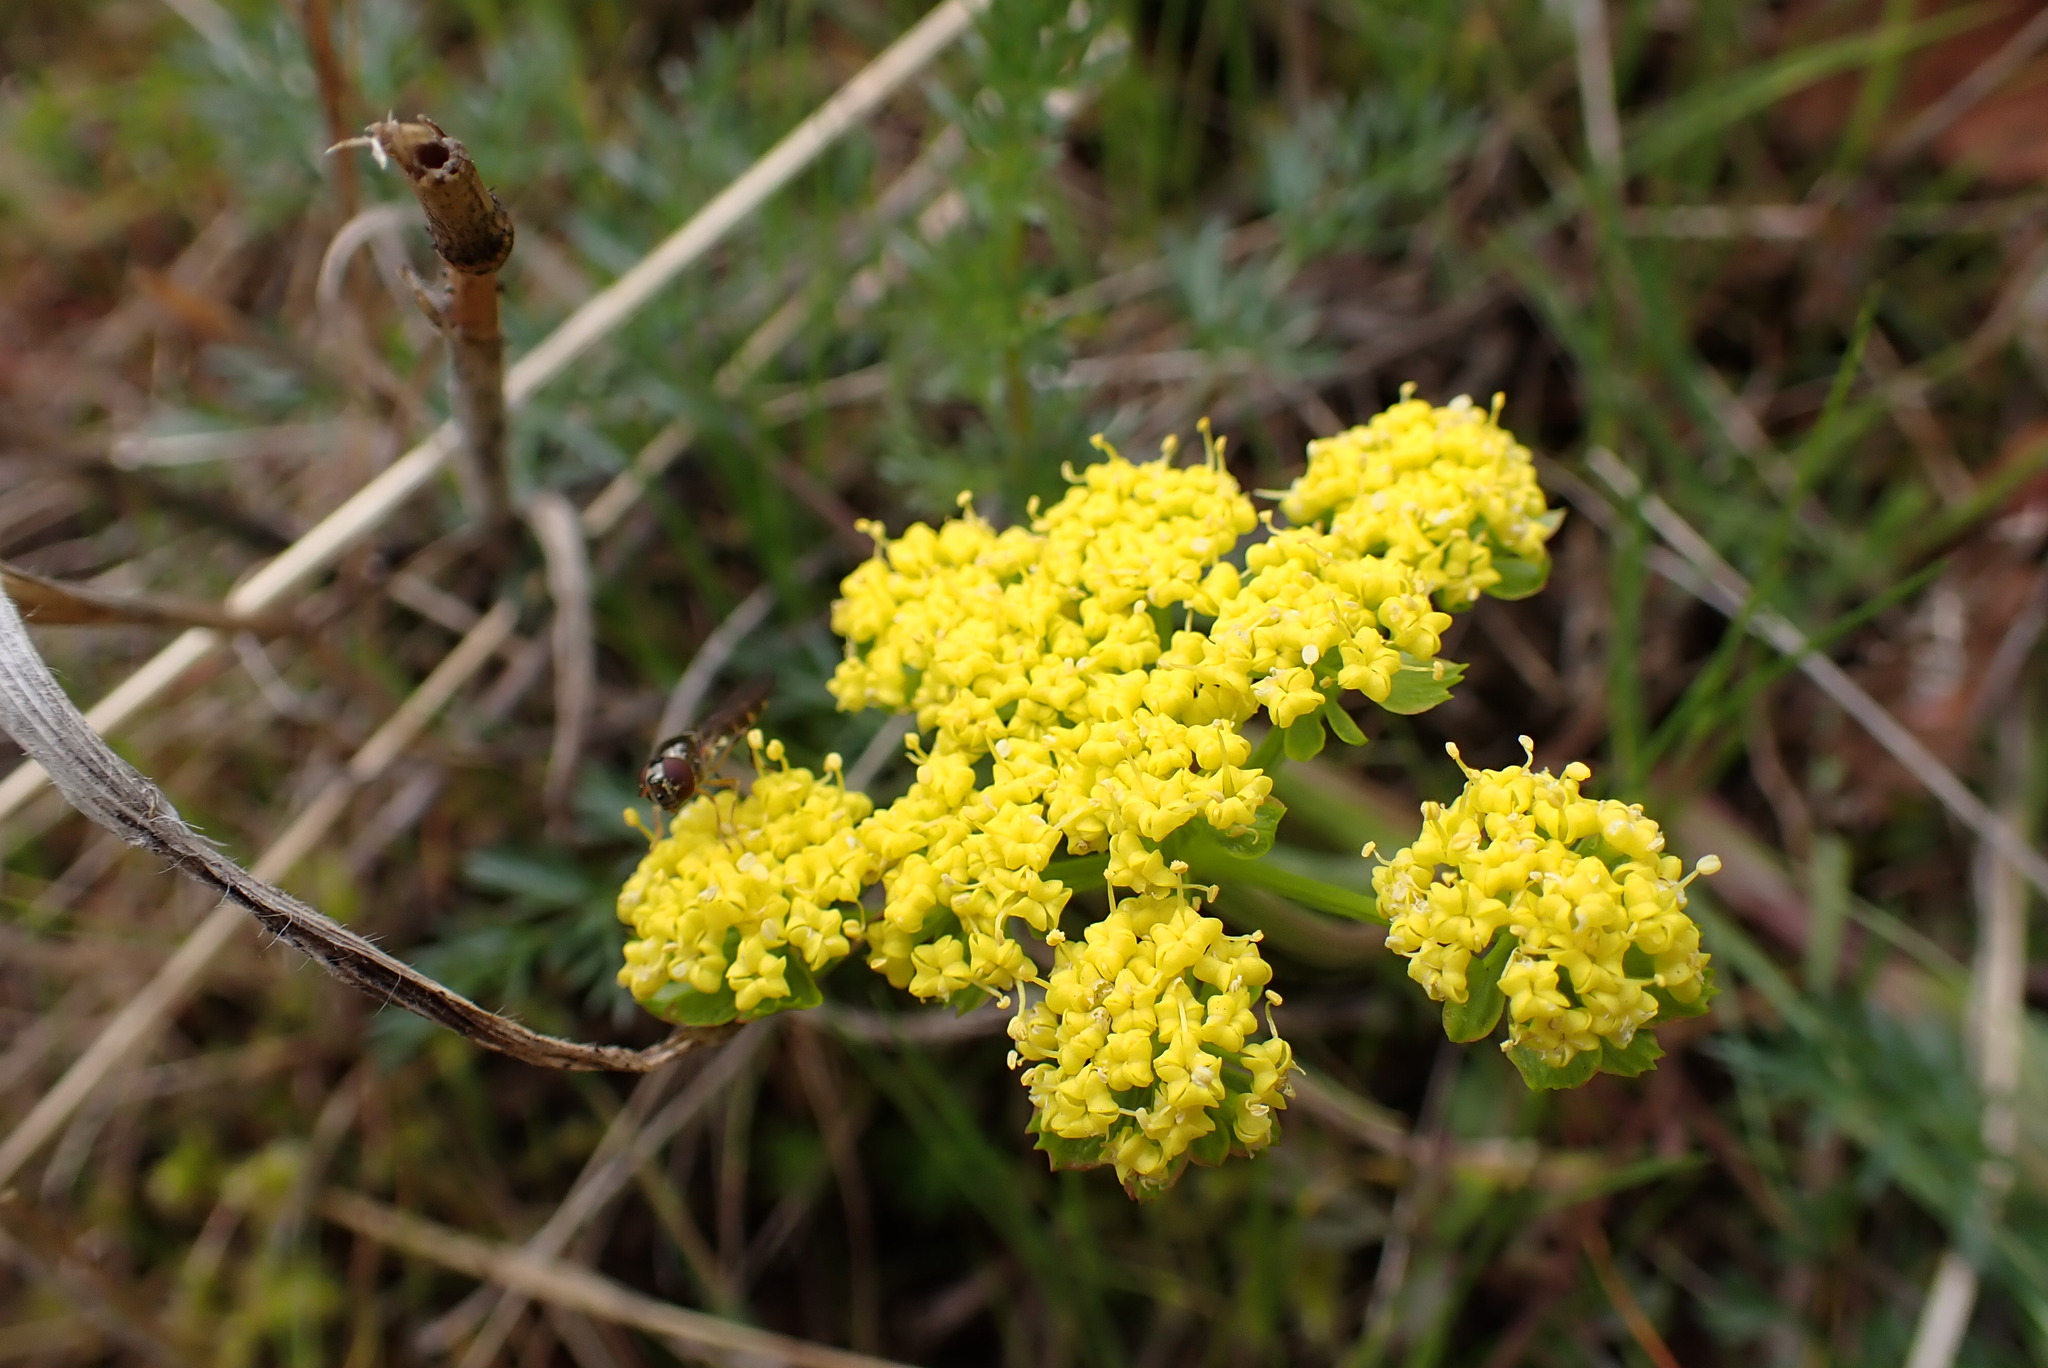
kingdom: Plantae
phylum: Tracheophyta
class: Magnoliopsida
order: Apiales
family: Apiaceae
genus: Lomatium
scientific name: Lomatium utriculatum
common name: Fine-leaf desert-parsley
